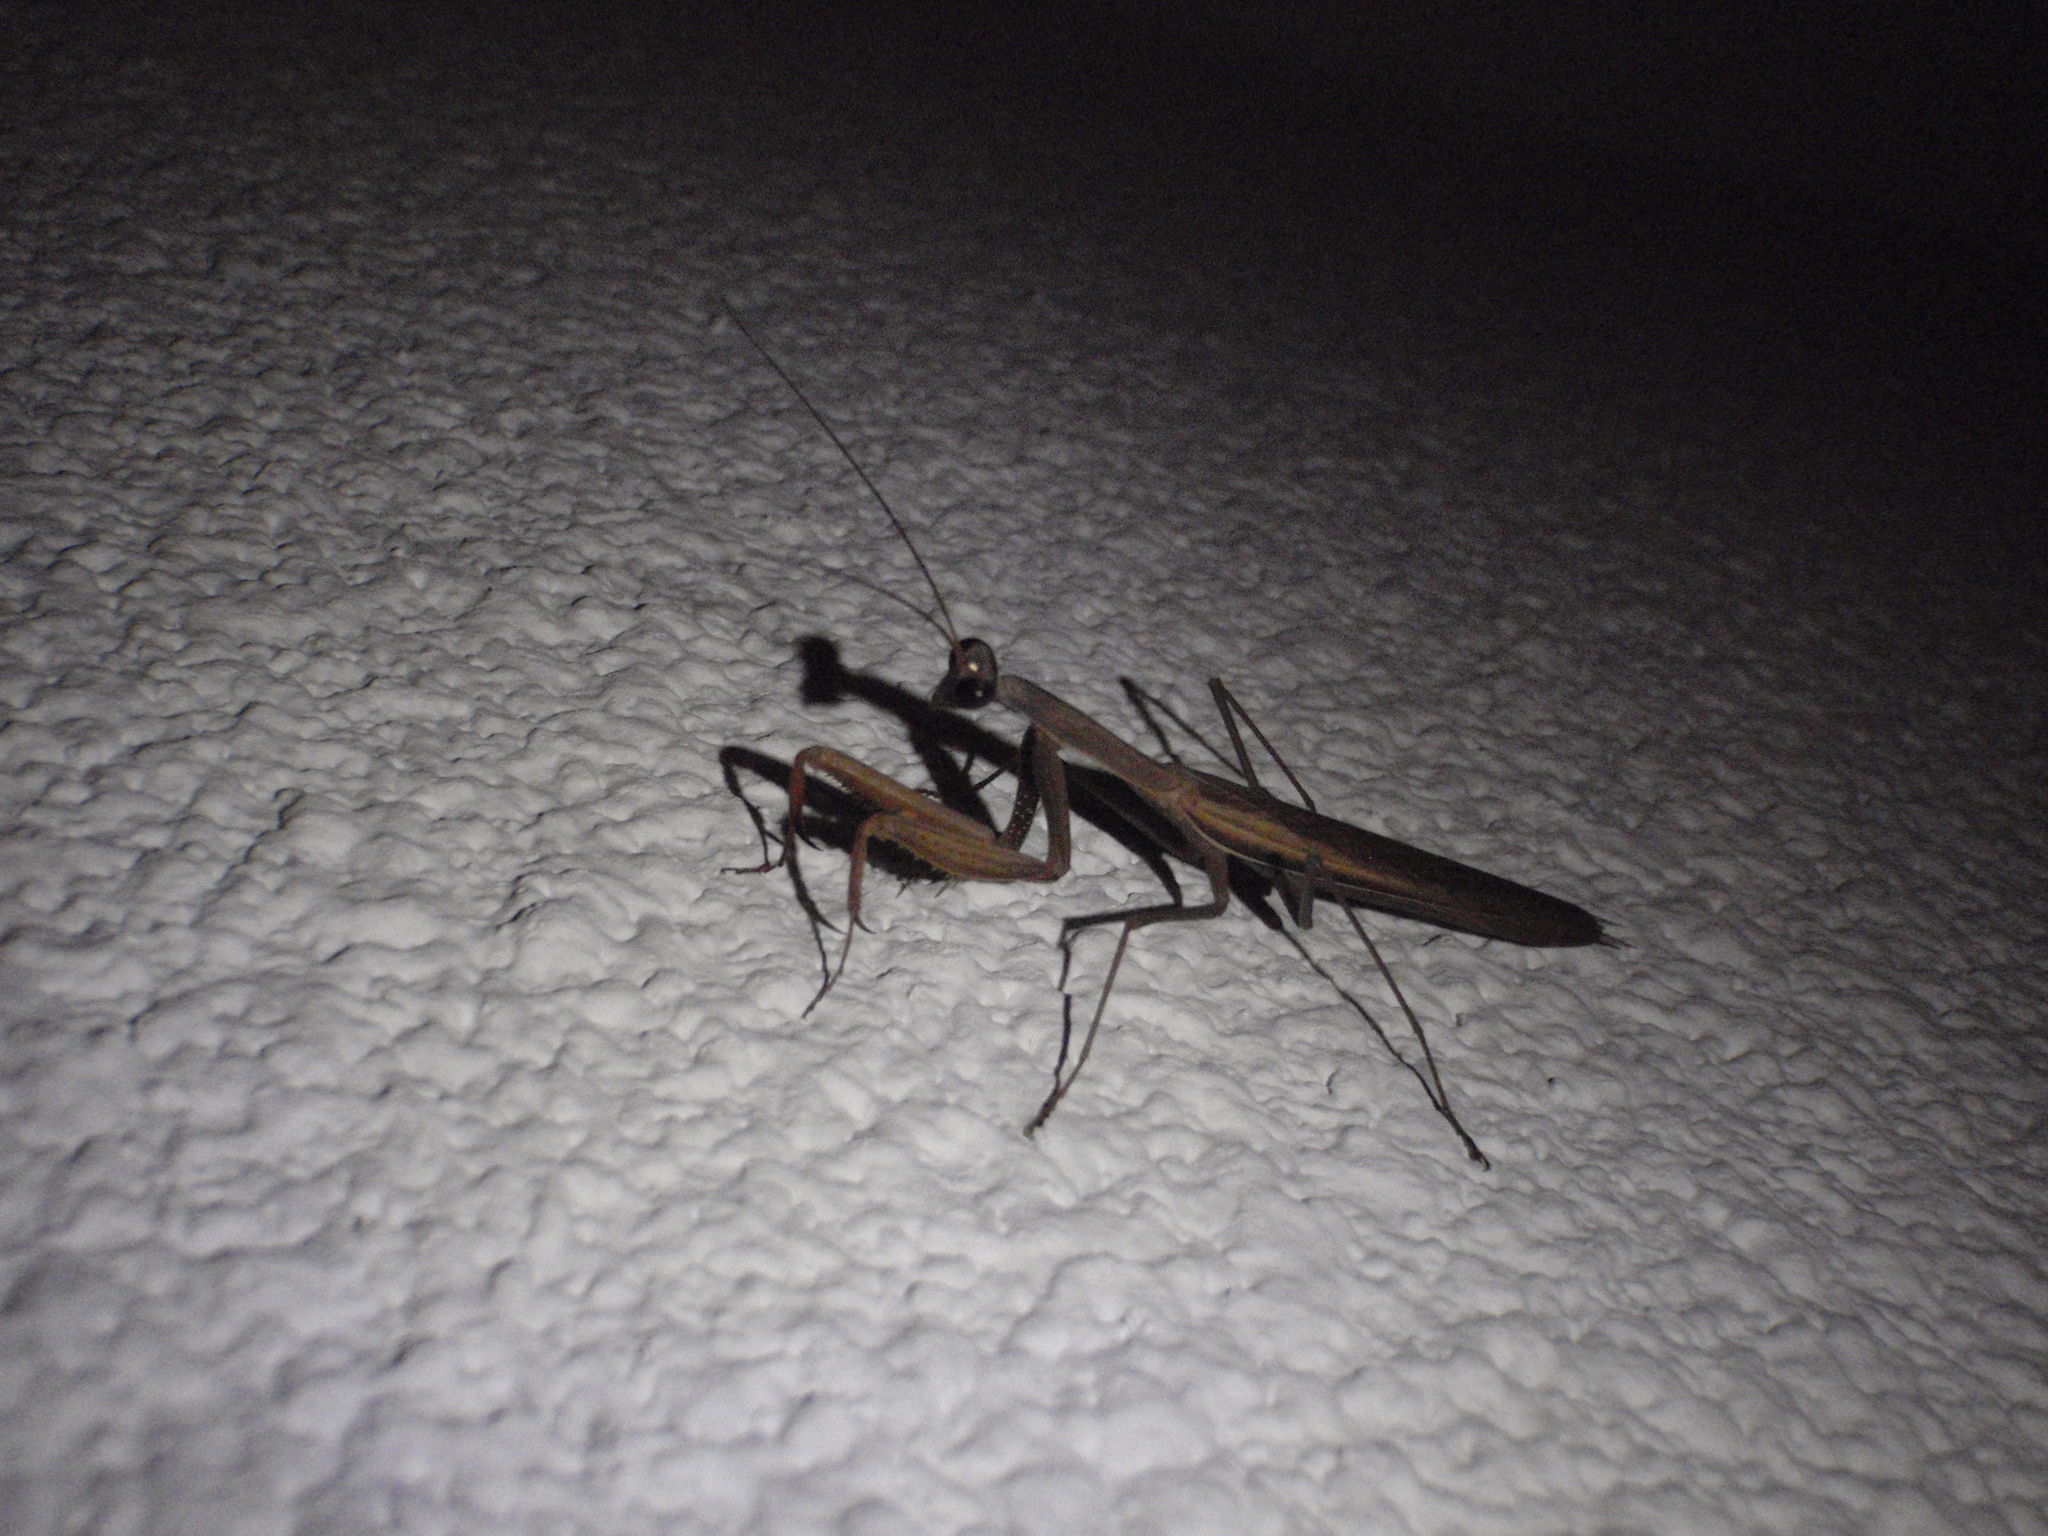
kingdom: Animalia
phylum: Arthropoda
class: Insecta
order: Mantodea
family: Mantidae
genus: Mantis
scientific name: Mantis religiosa
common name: Praying mantis
